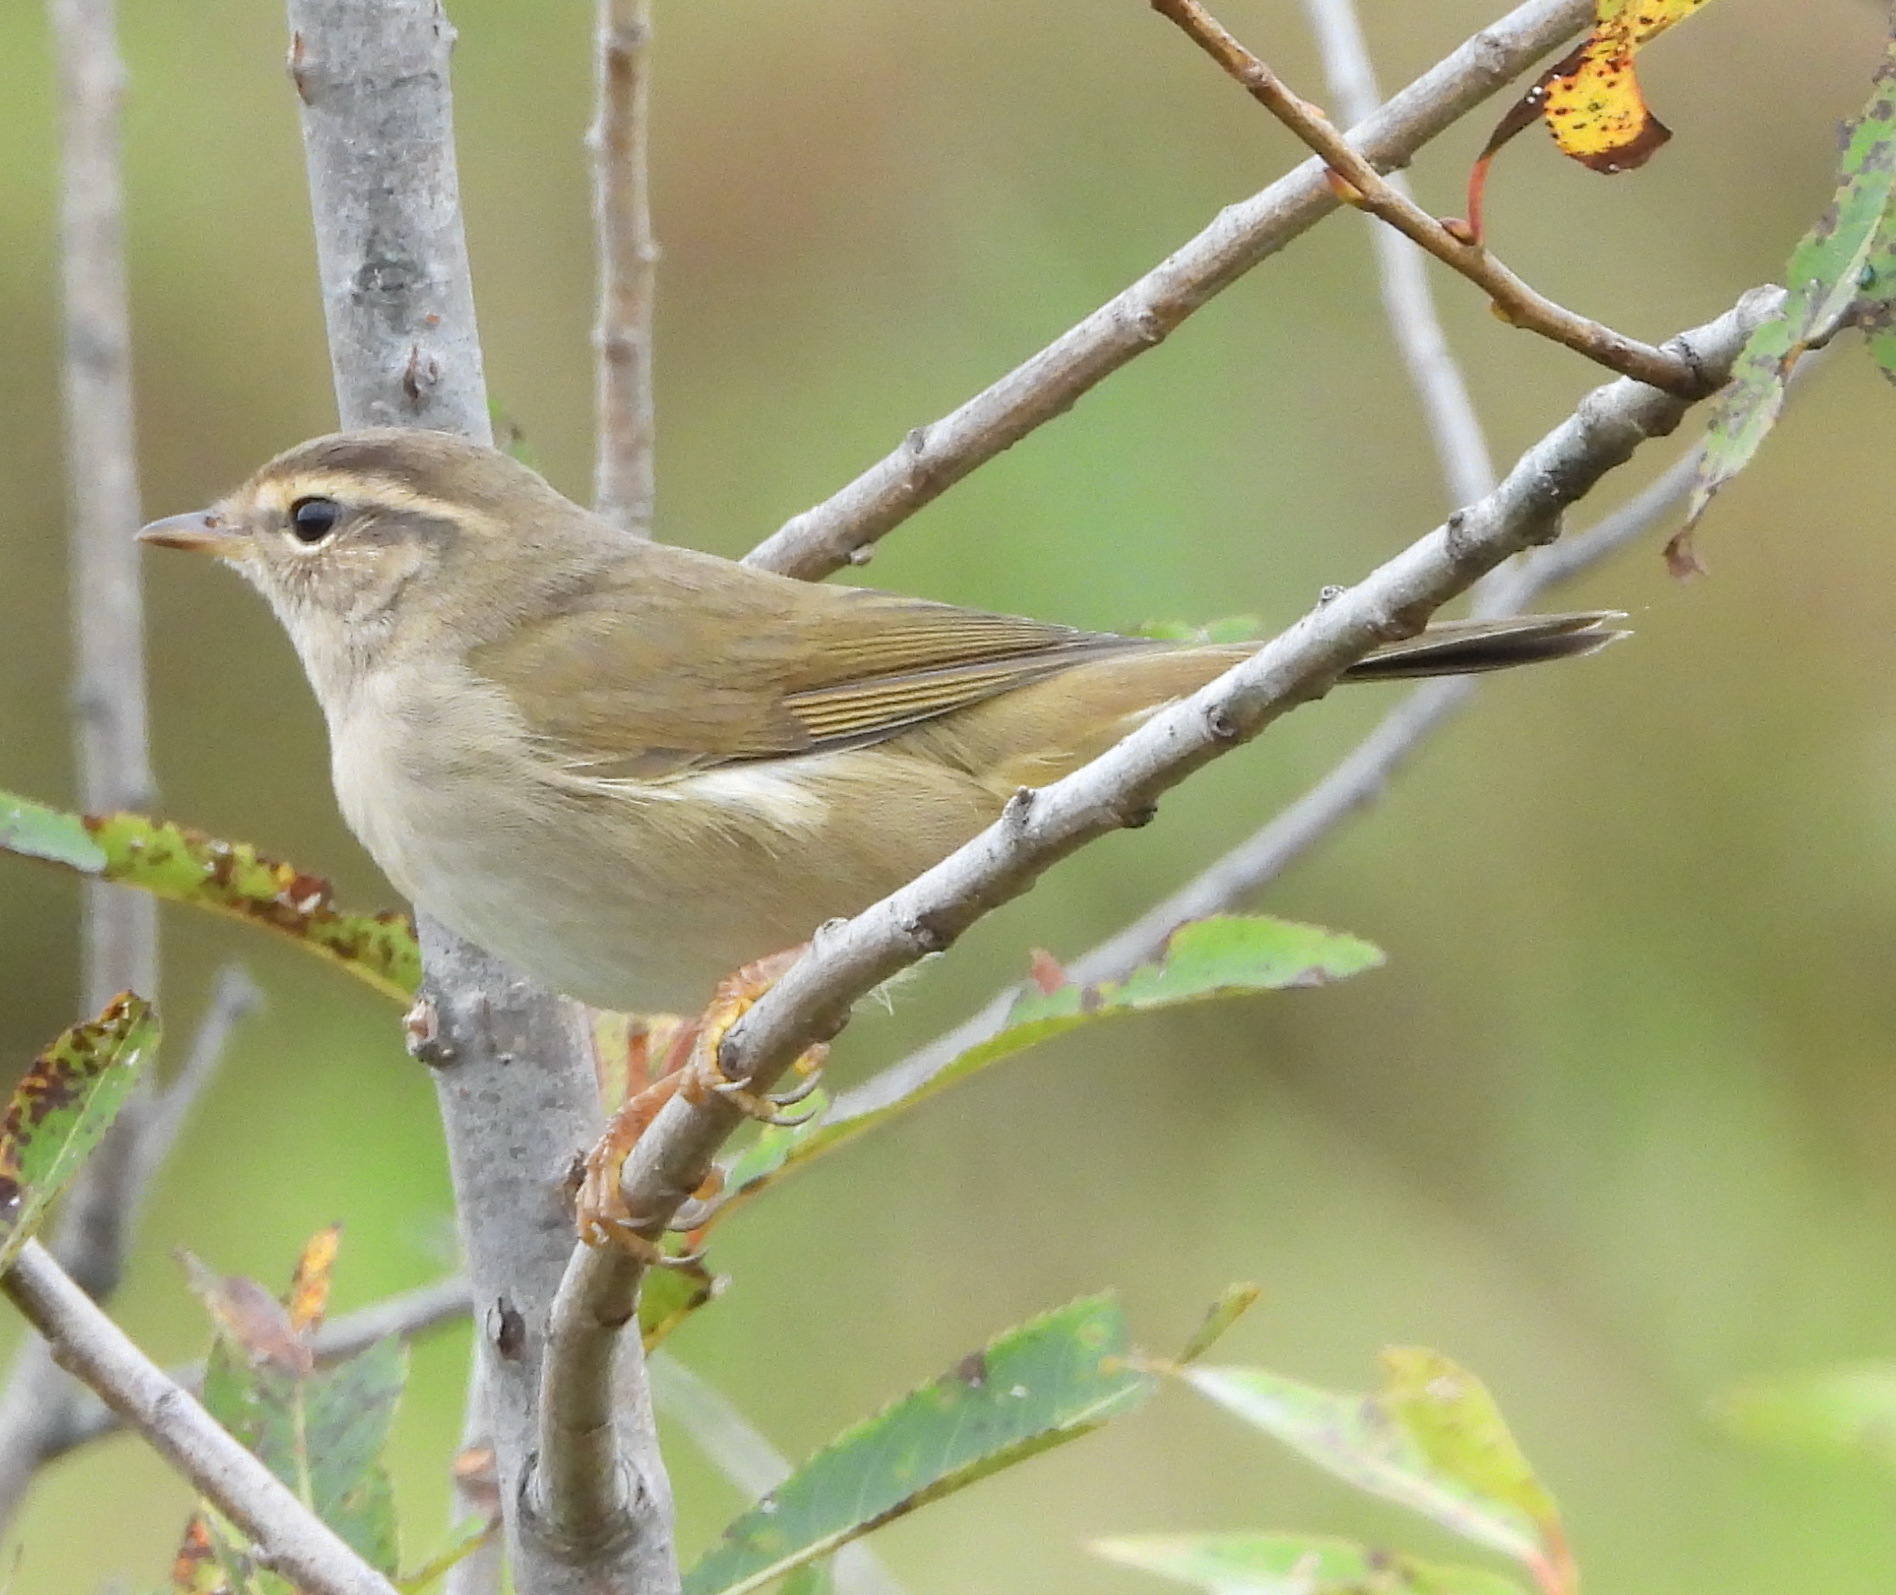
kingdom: Animalia
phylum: Chordata
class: Aves
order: Passeriformes
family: Phylloscopidae
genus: Phylloscopus
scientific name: Phylloscopus schwarzi
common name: Radde's warbler
